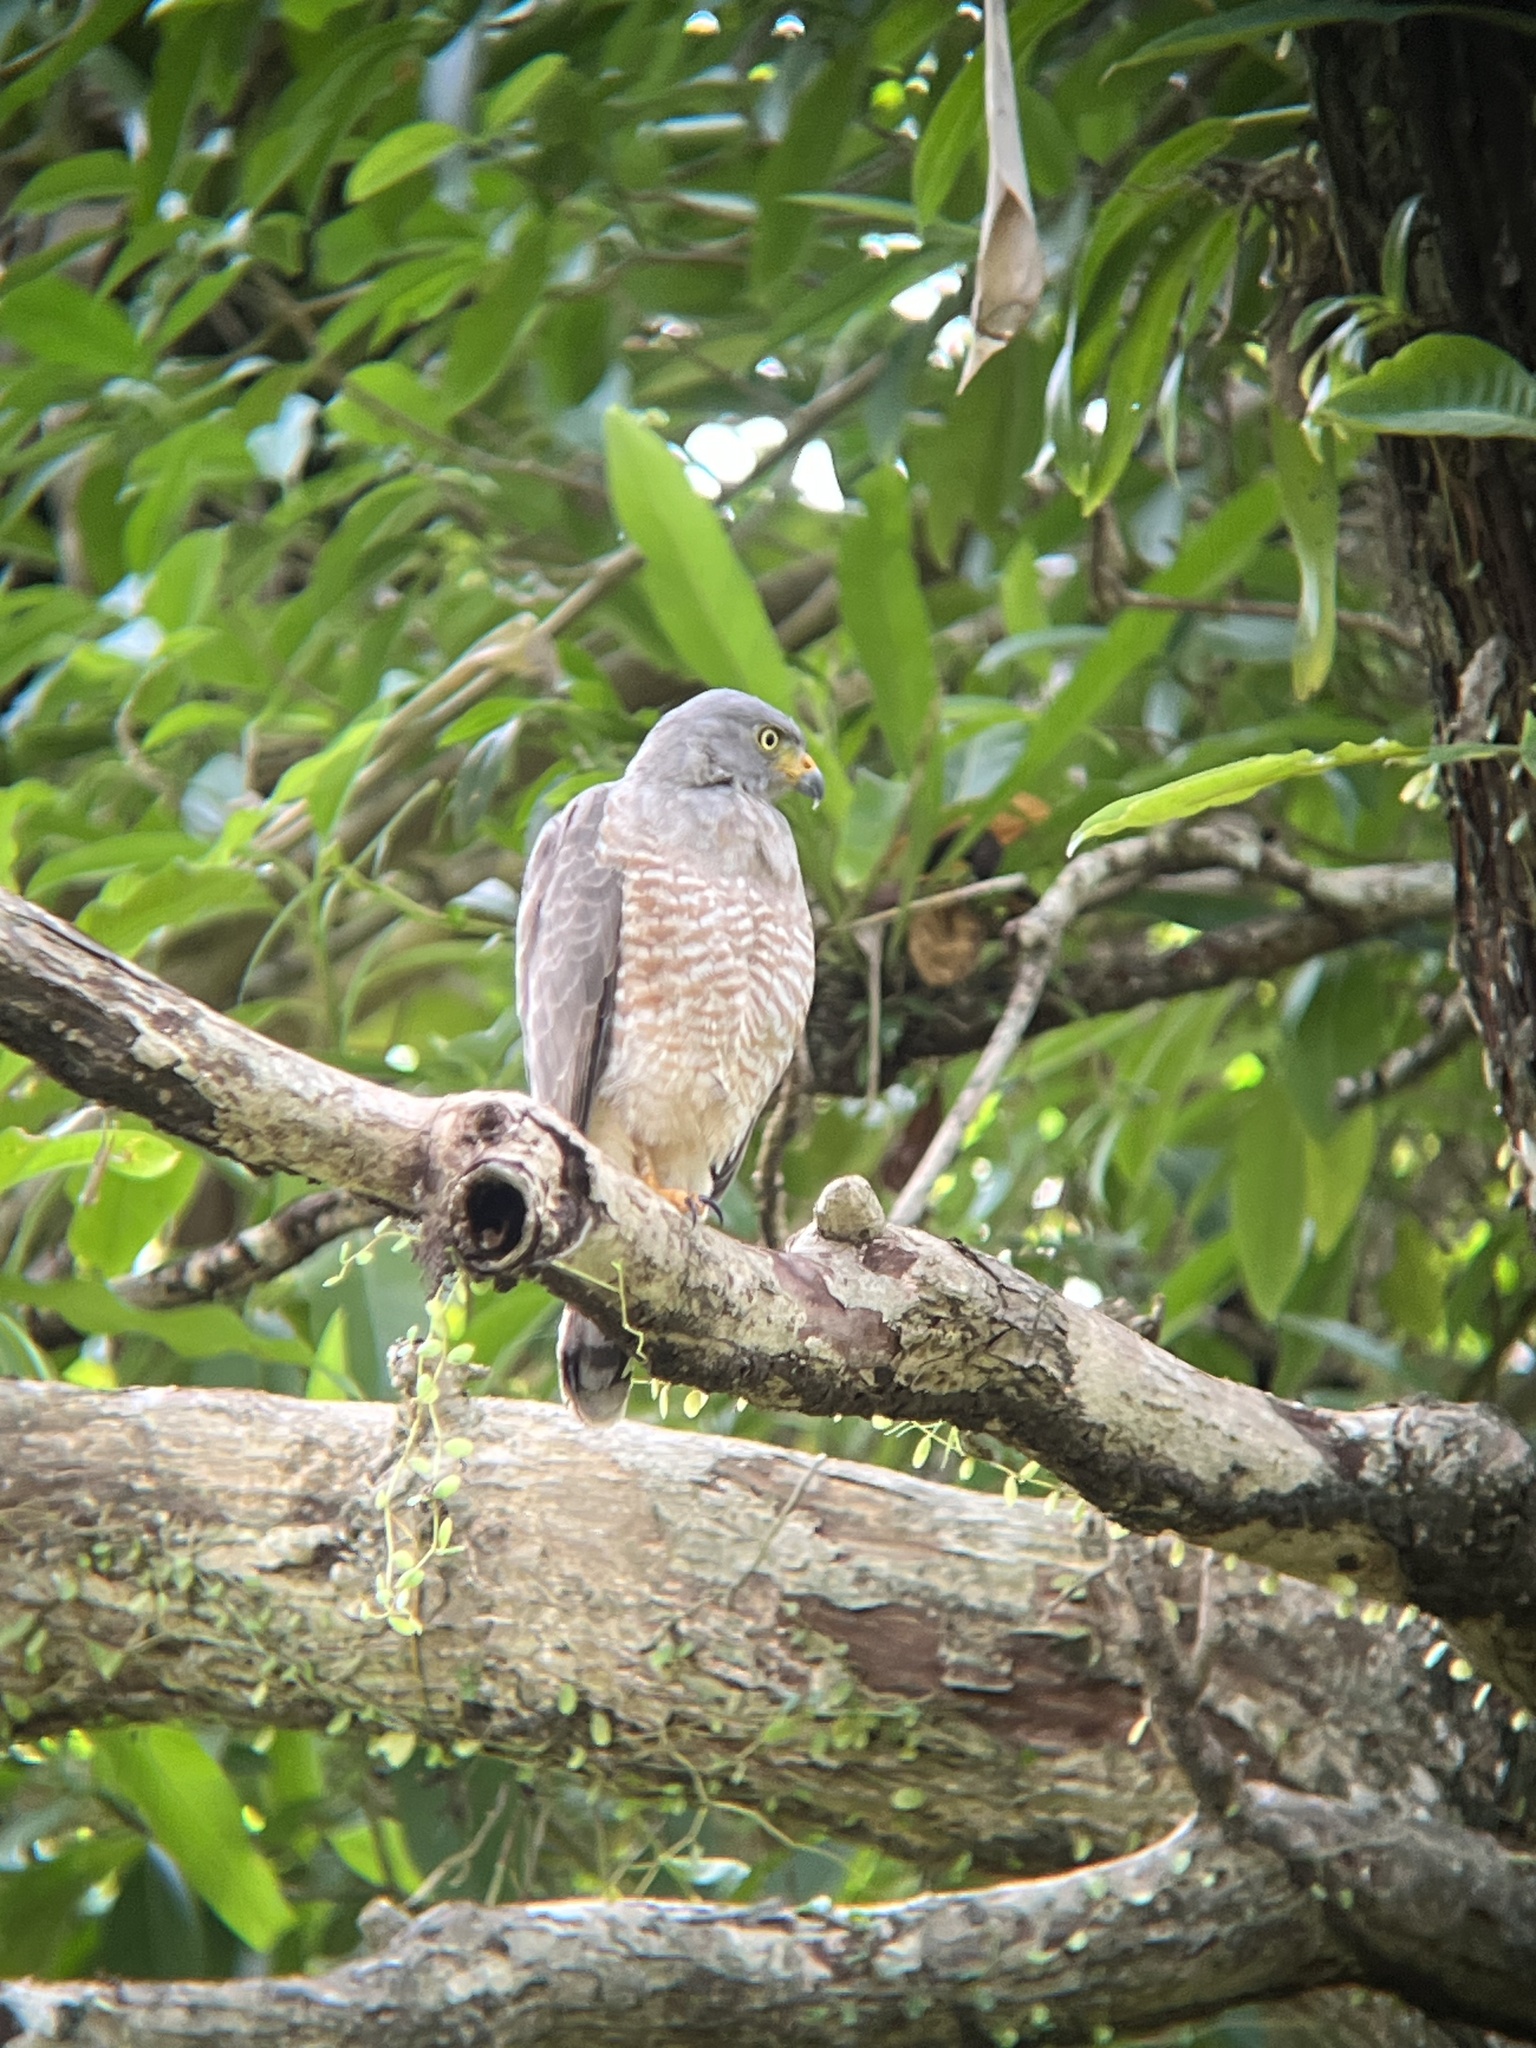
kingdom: Animalia
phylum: Chordata
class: Aves
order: Accipitriformes
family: Accipitridae
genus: Rupornis
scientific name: Rupornis magnirostris
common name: Roadside hawk
